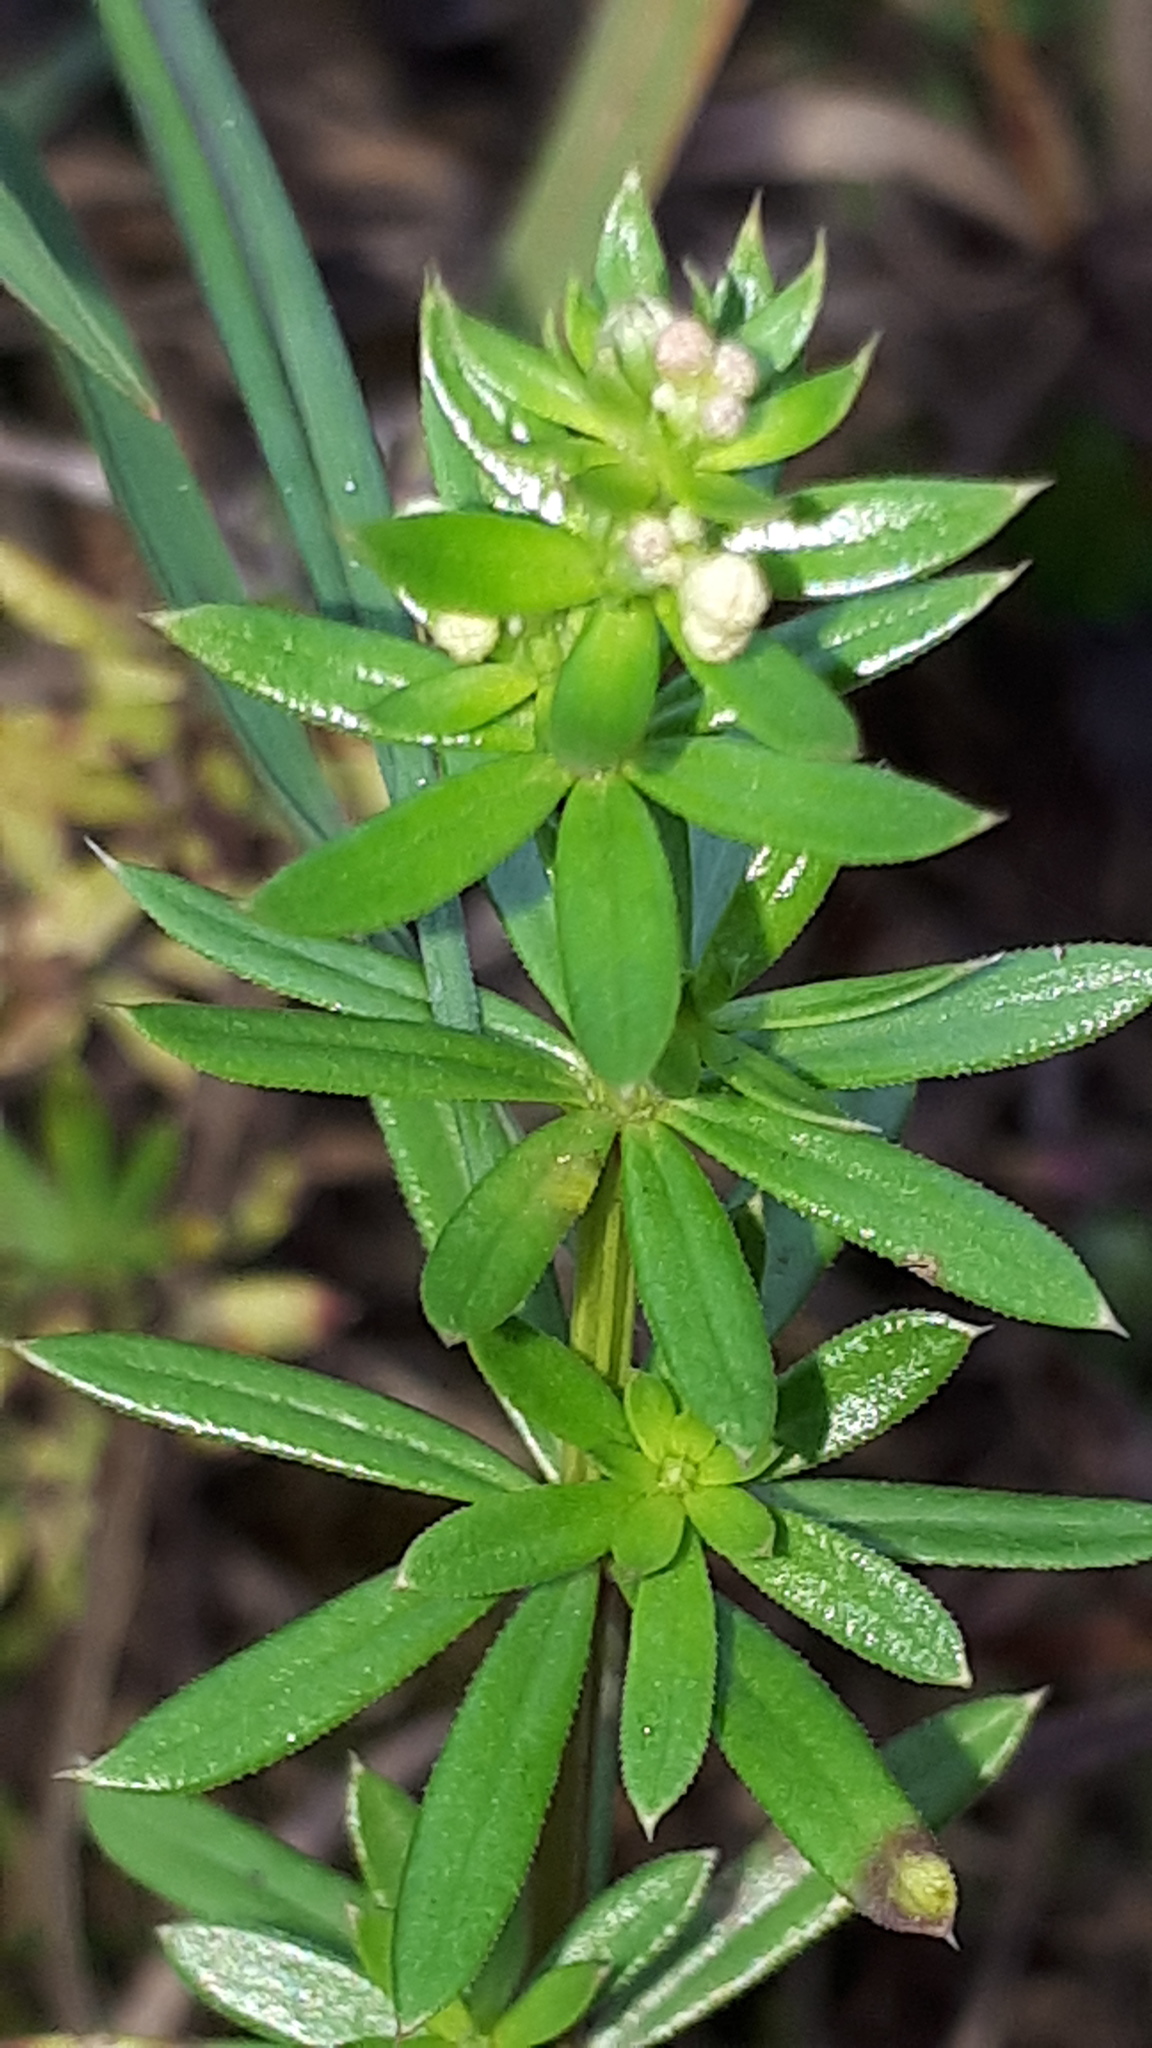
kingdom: Plantae
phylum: Tracheophyta
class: Magnoliopsida
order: Gentianales
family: Rubiaceae
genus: Galium
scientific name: Galium album
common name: White bedstraw
